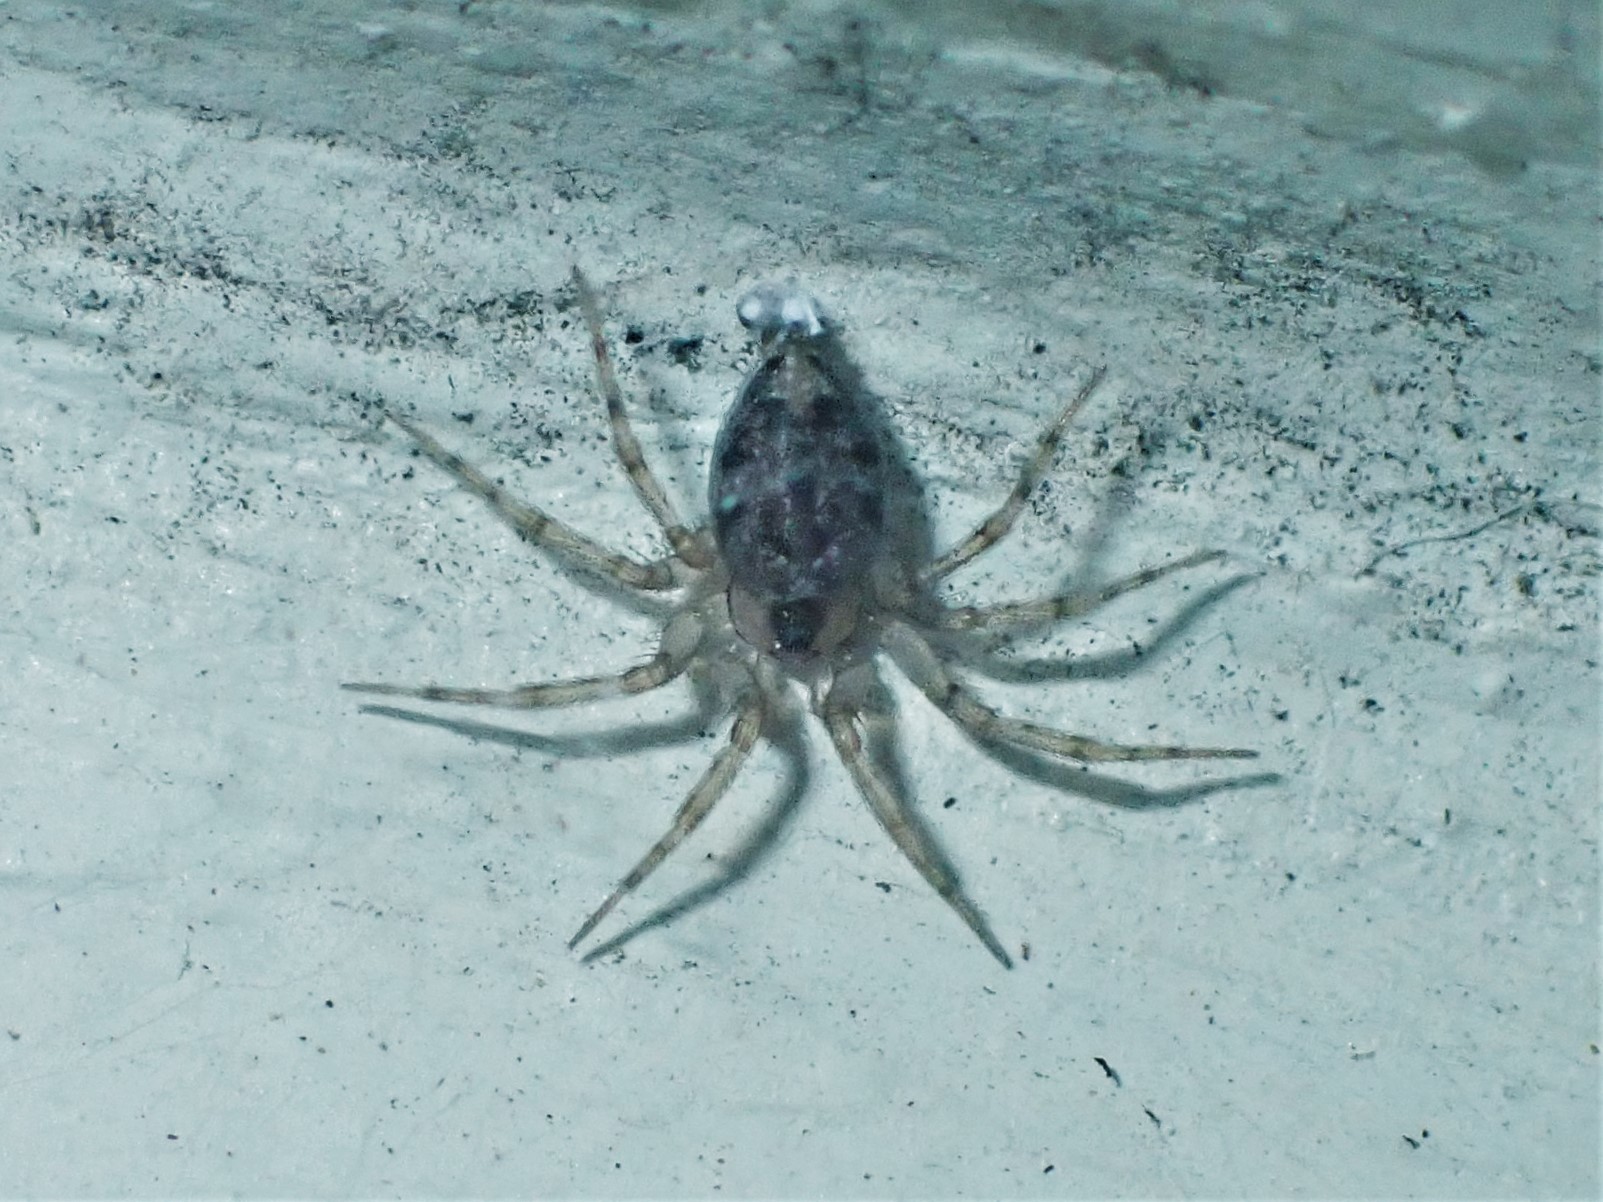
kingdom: Animalia
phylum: Arthropoda
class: Arachnida
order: Araneae
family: Oecobiidae
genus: Oecobius
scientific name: Oecobius navus
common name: Flatmesh weaver
